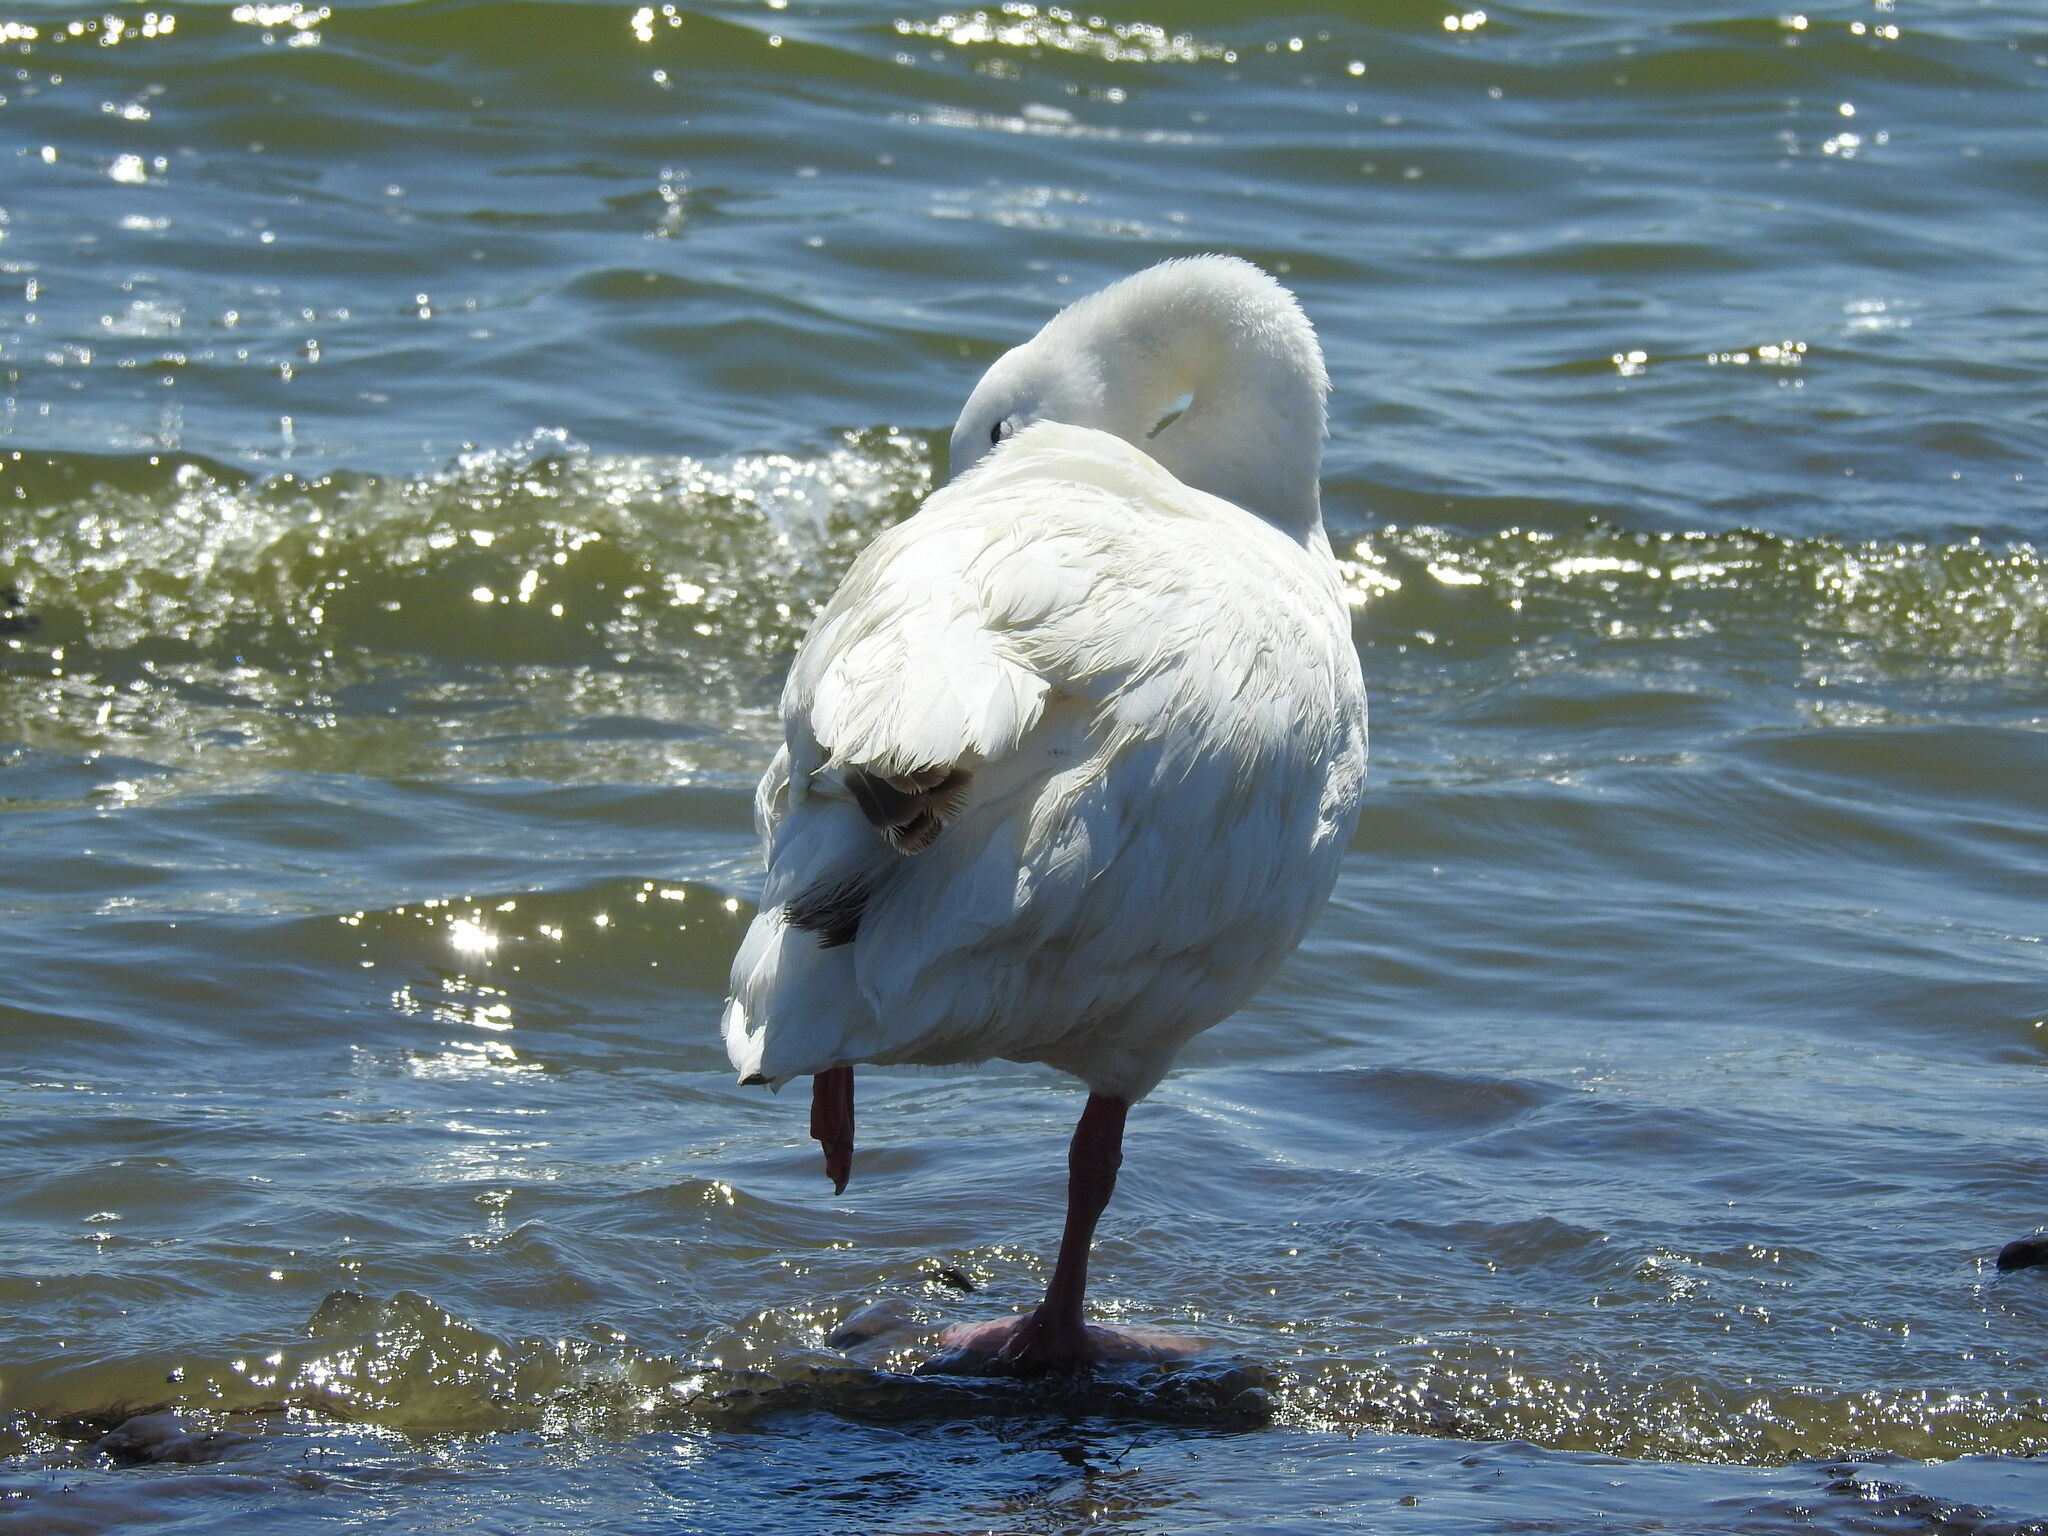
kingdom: Animalia
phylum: Chordata
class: Aves
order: Anseriformes
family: Anatidae
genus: Coscoroba
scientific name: Coscoroba coscoroba
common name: Coscoroba swan
